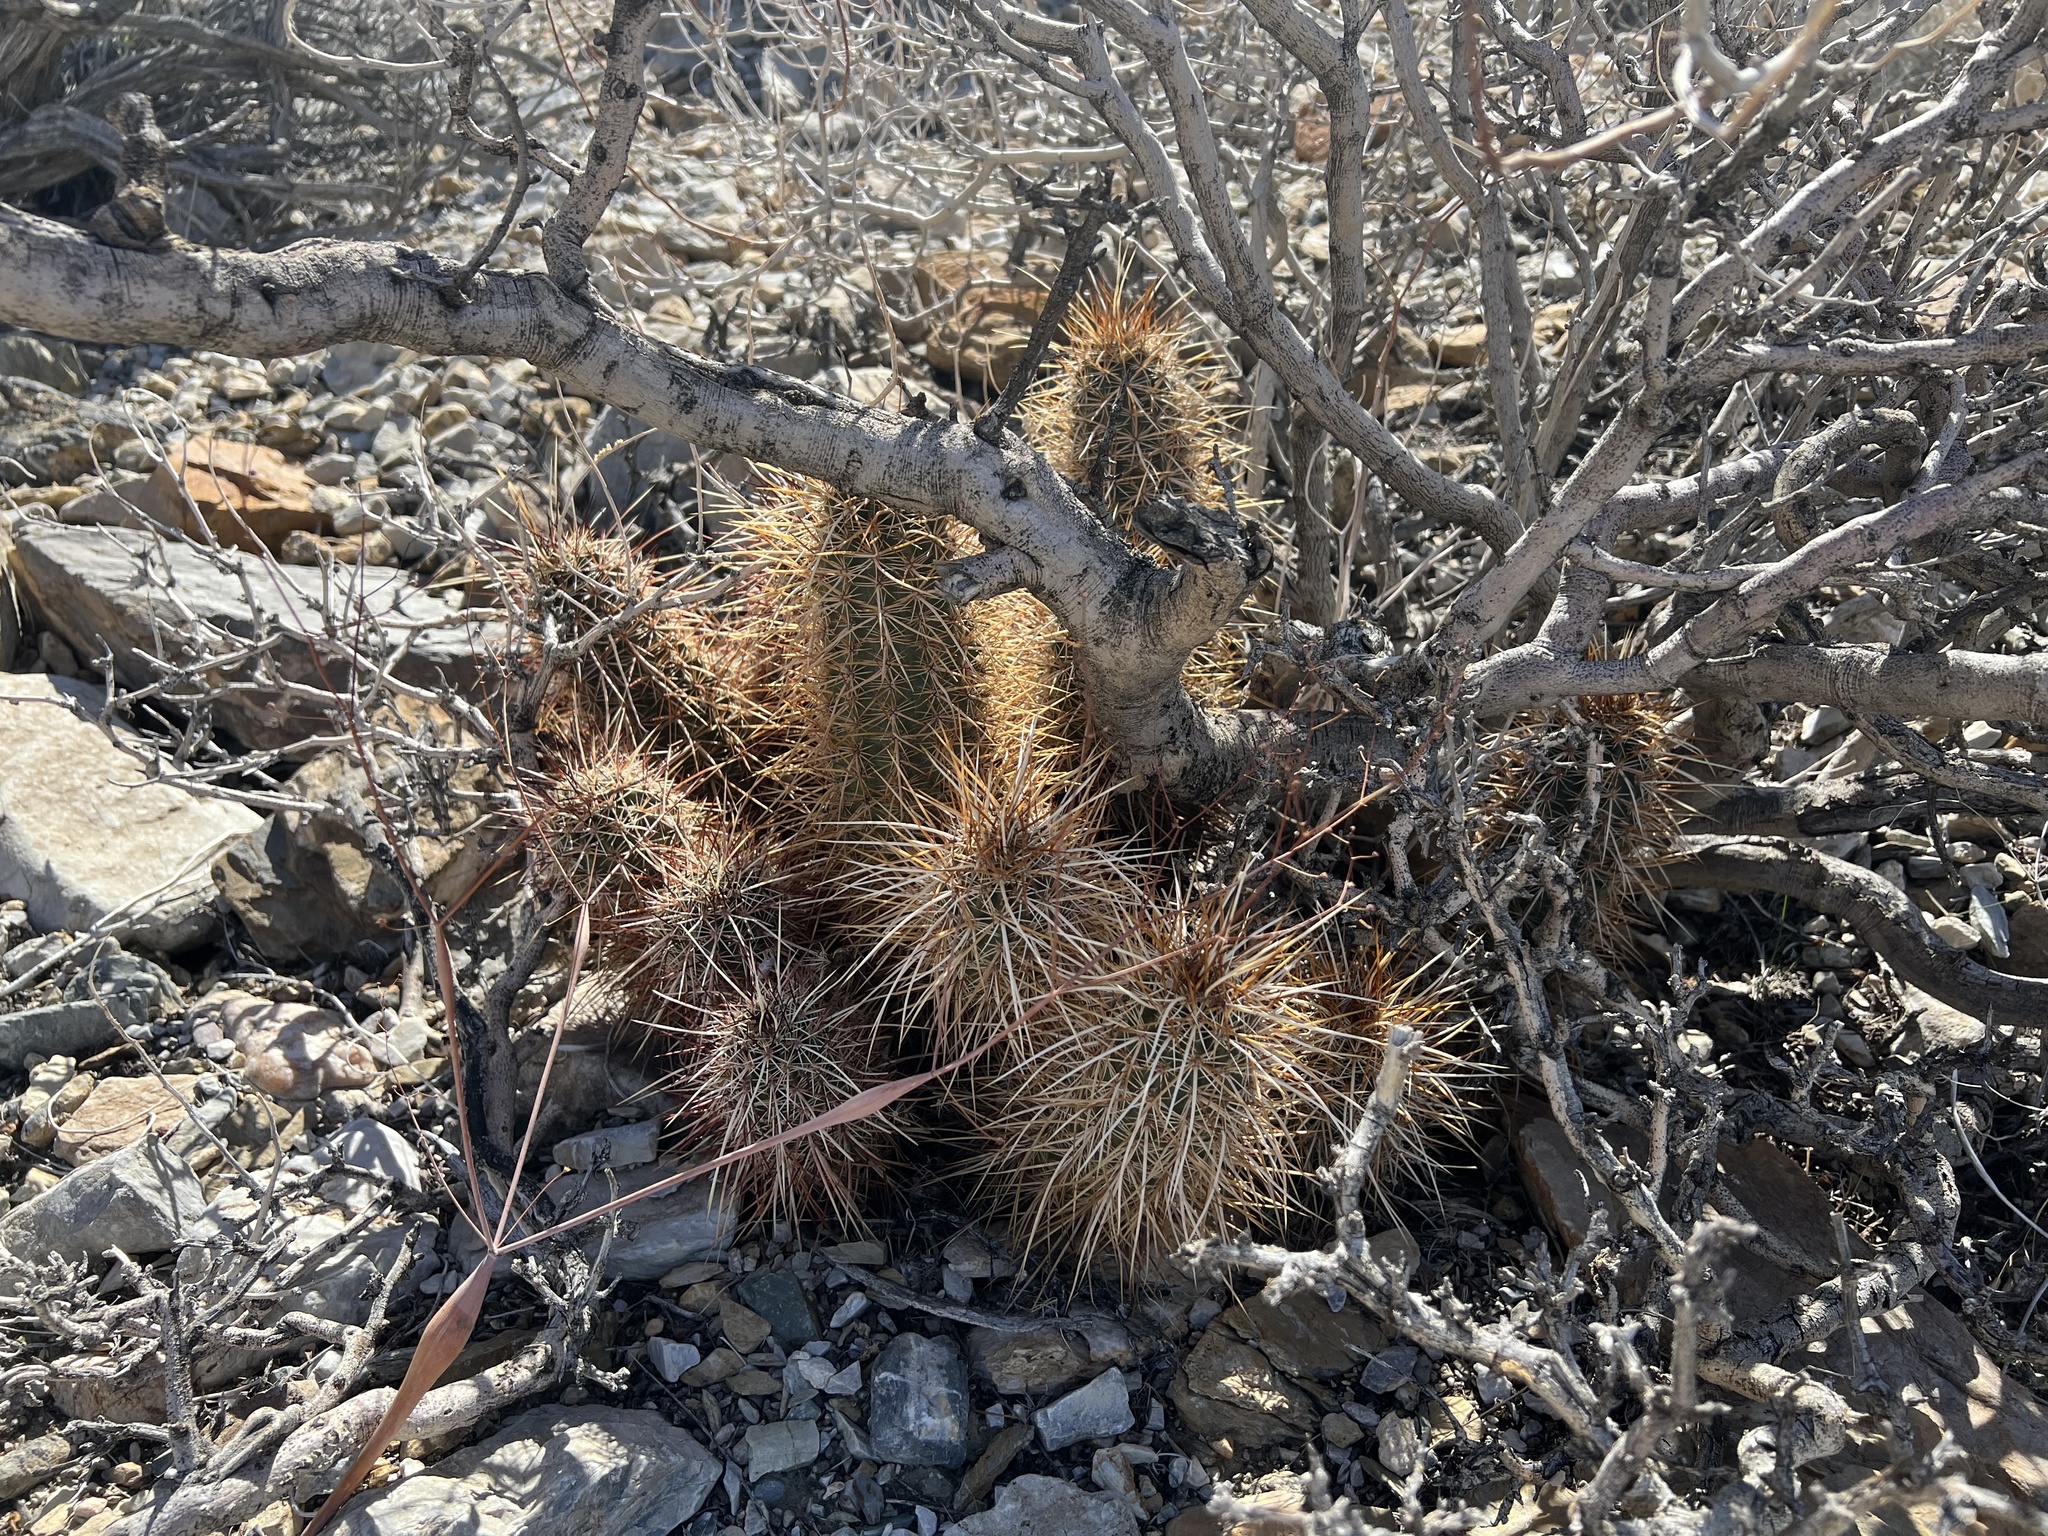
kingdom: Plantae
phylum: Tracheophyta
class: Magnoliopsida
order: Caryophyllales
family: Cactaceae
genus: Echinocereus
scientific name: Echinocereus engelmannii
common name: Engelmann's hedgehog cactus
